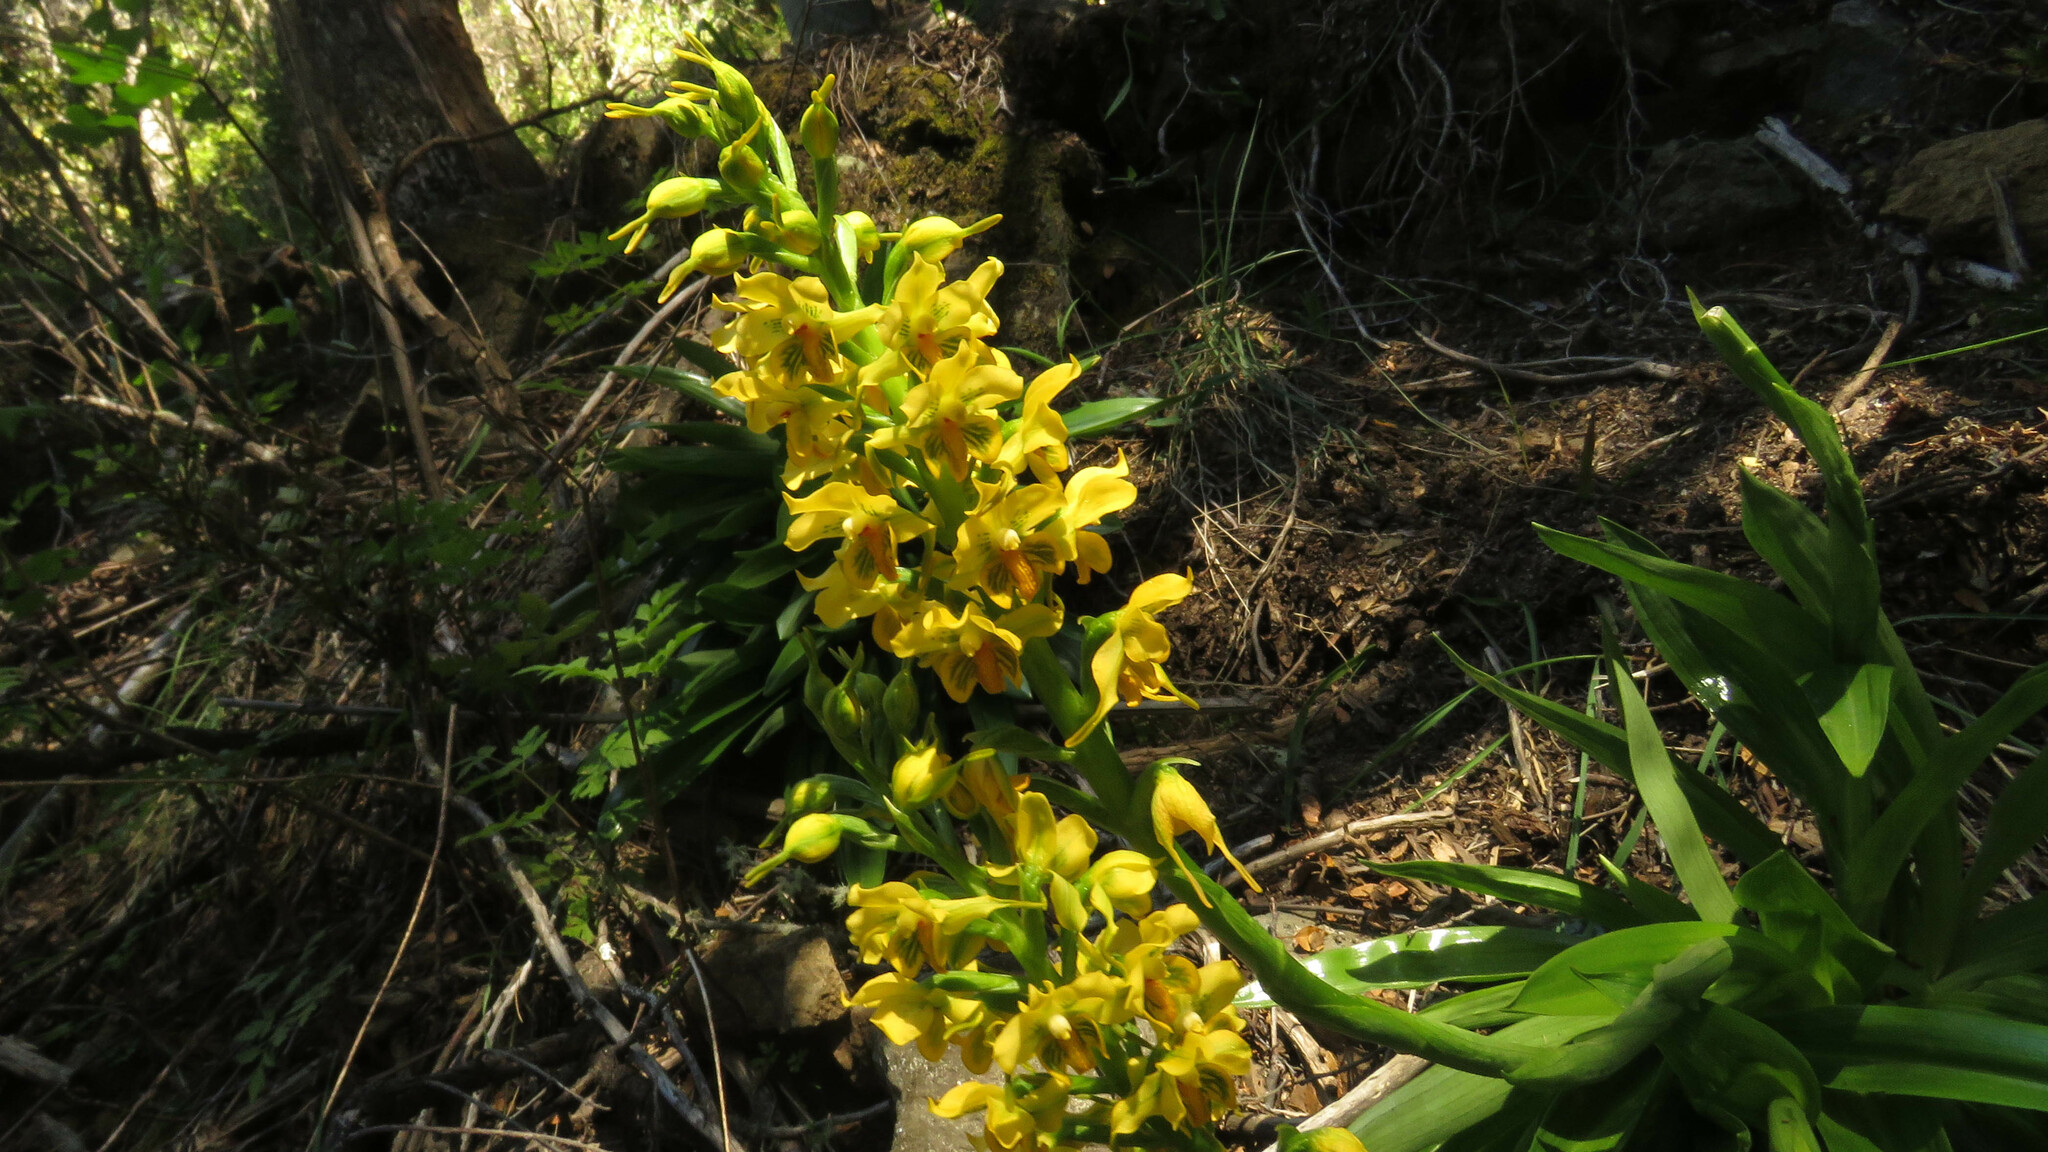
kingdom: Plantae
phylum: Tracheophyta
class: Liliopsida
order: Asparagales
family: Orchidaceae
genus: Gavilea
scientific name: Gavilea odoratissima
